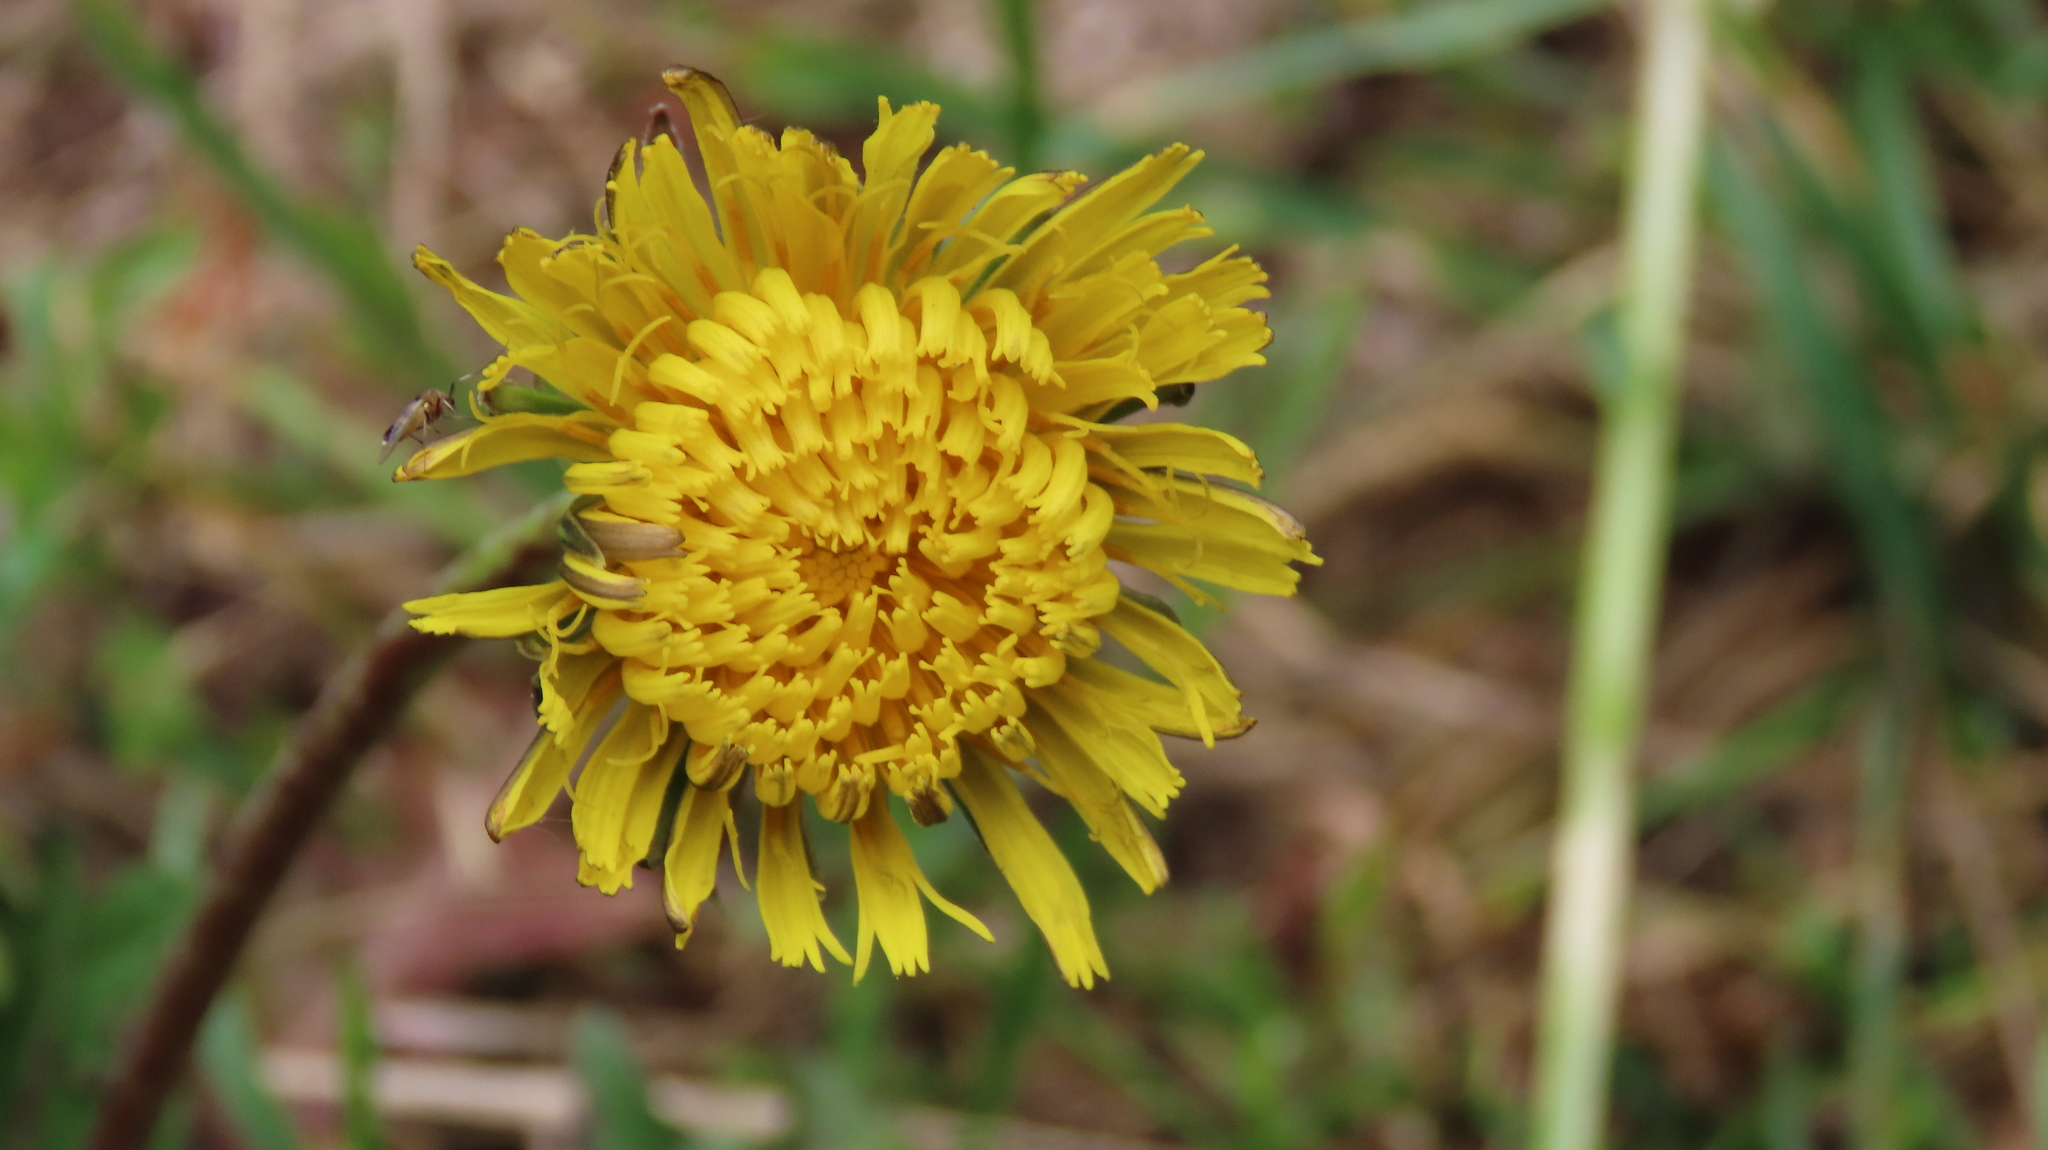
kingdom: Plantae
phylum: Tracheophyta
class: Magnoliopsida
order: Asterales
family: Asteraceae
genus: Taraxacum
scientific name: Taraxacum officinale
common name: Common dandelion
